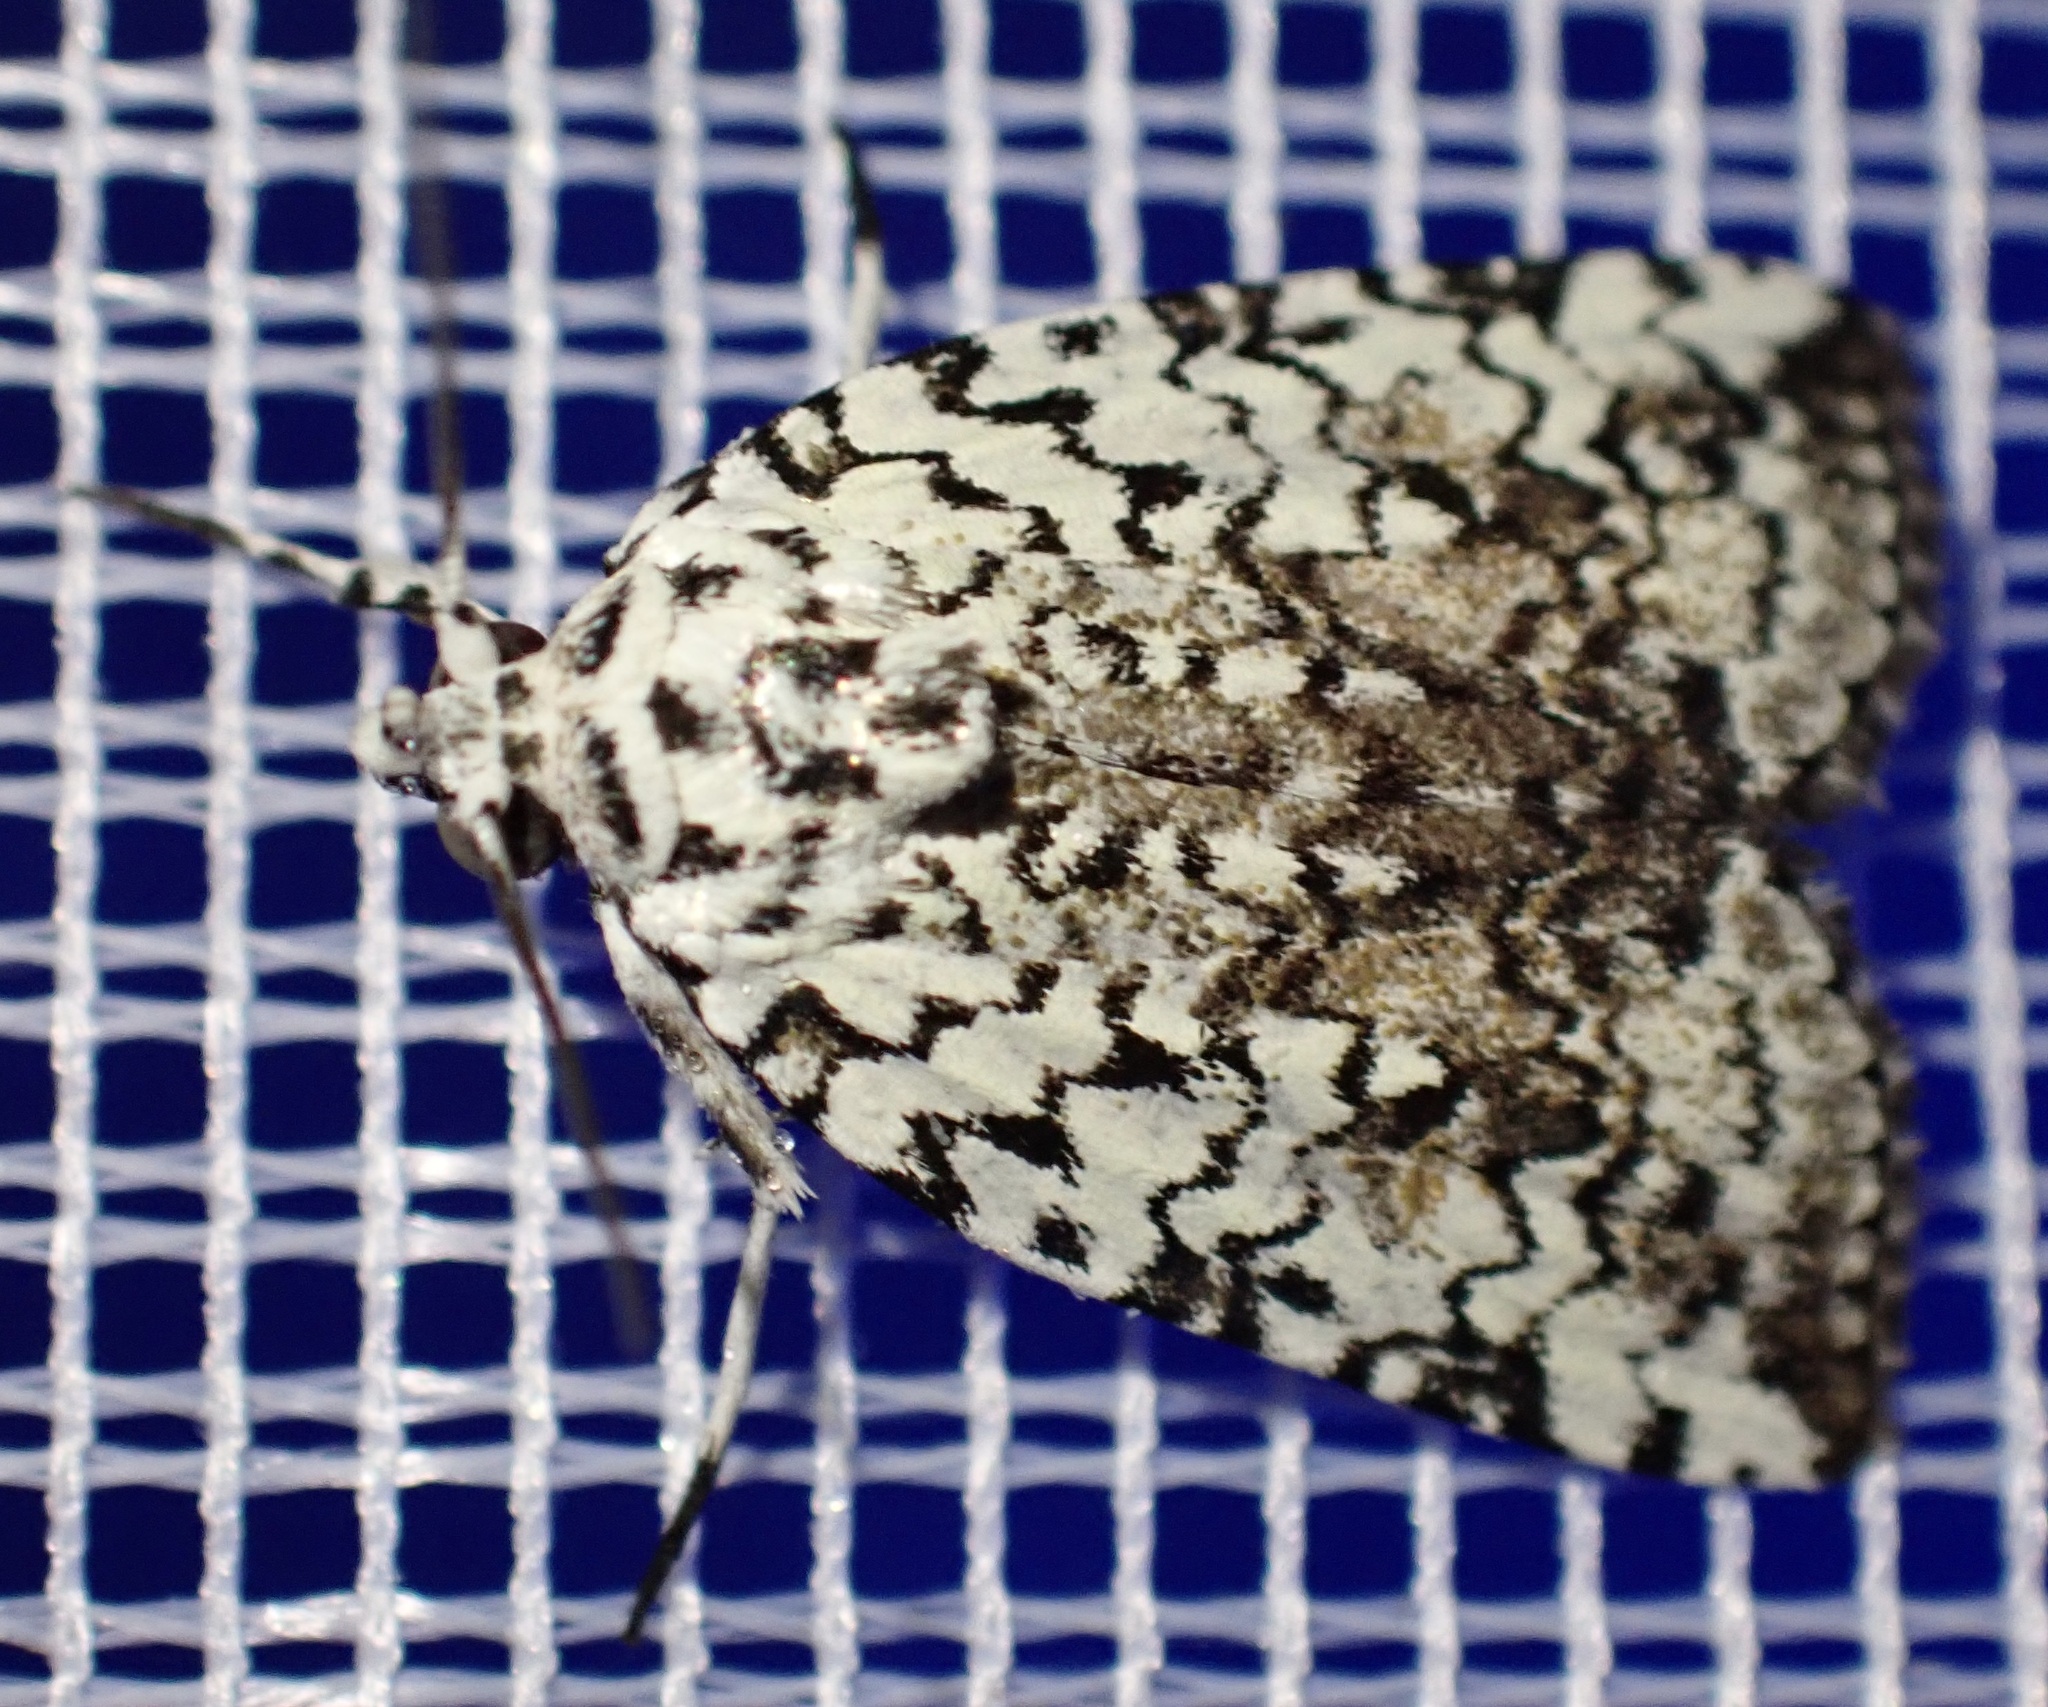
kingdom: Animalia
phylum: Arthropoda
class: Insecta
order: Lepidoptera
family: Nolidae
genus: Nycteola
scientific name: Nycteola avola
